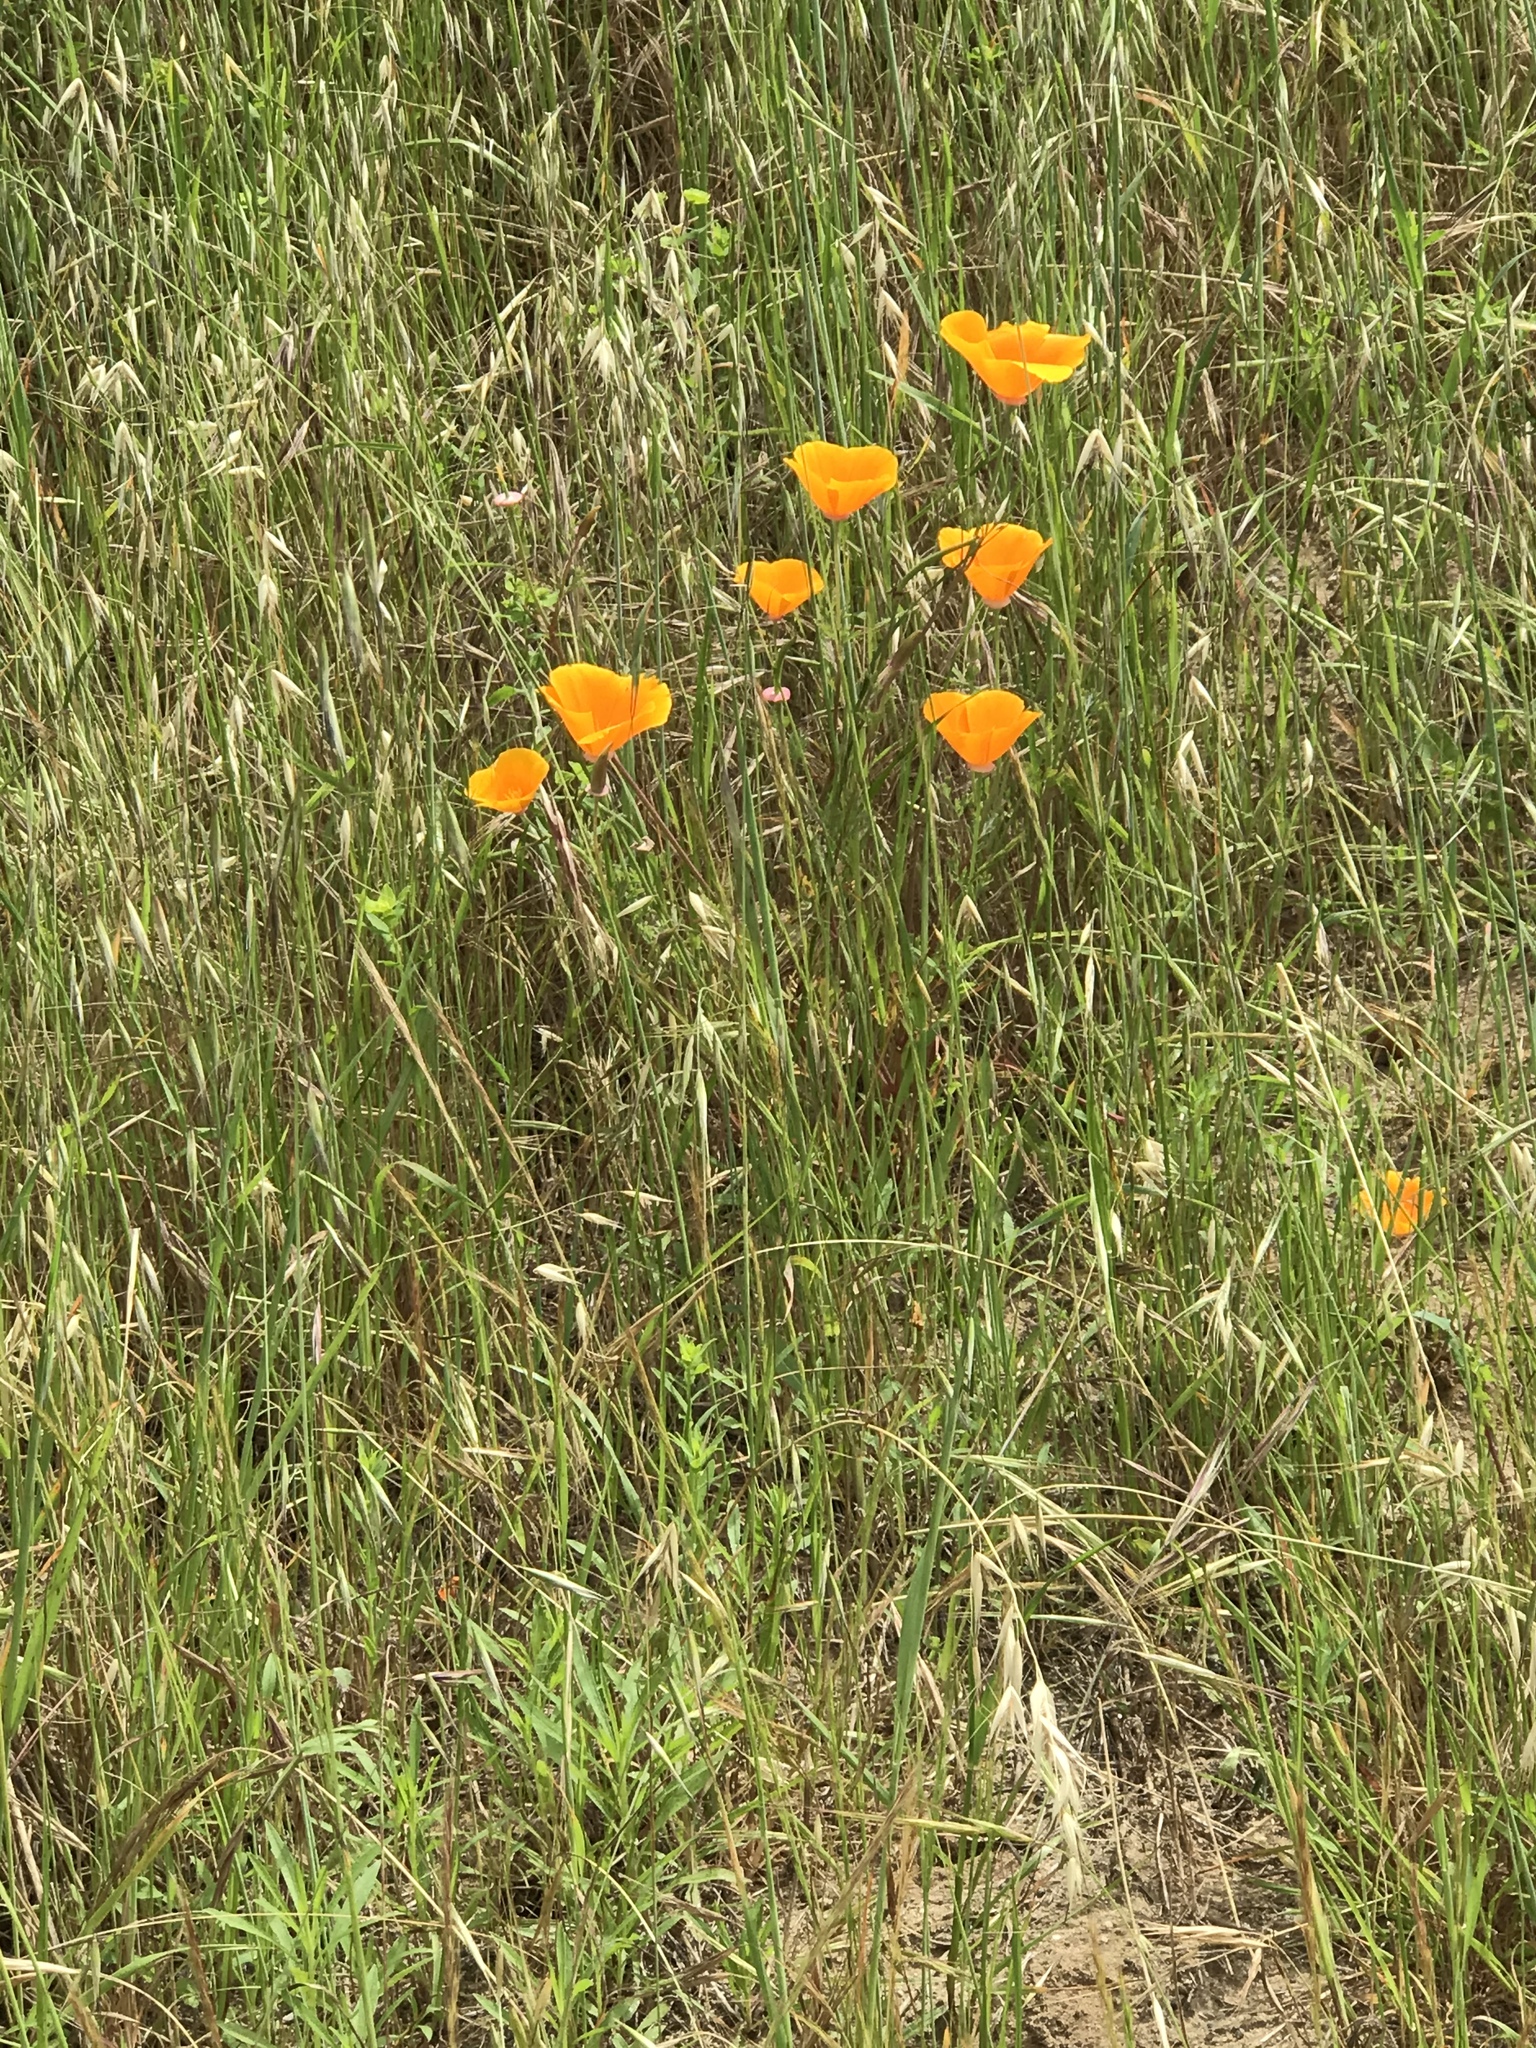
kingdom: Plantae
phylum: Tracheophyta
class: Magnoliopsida
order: Ranunculales
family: Papaveraceae
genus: Eschscholzia
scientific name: Eschscholzia californica
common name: California poppy
